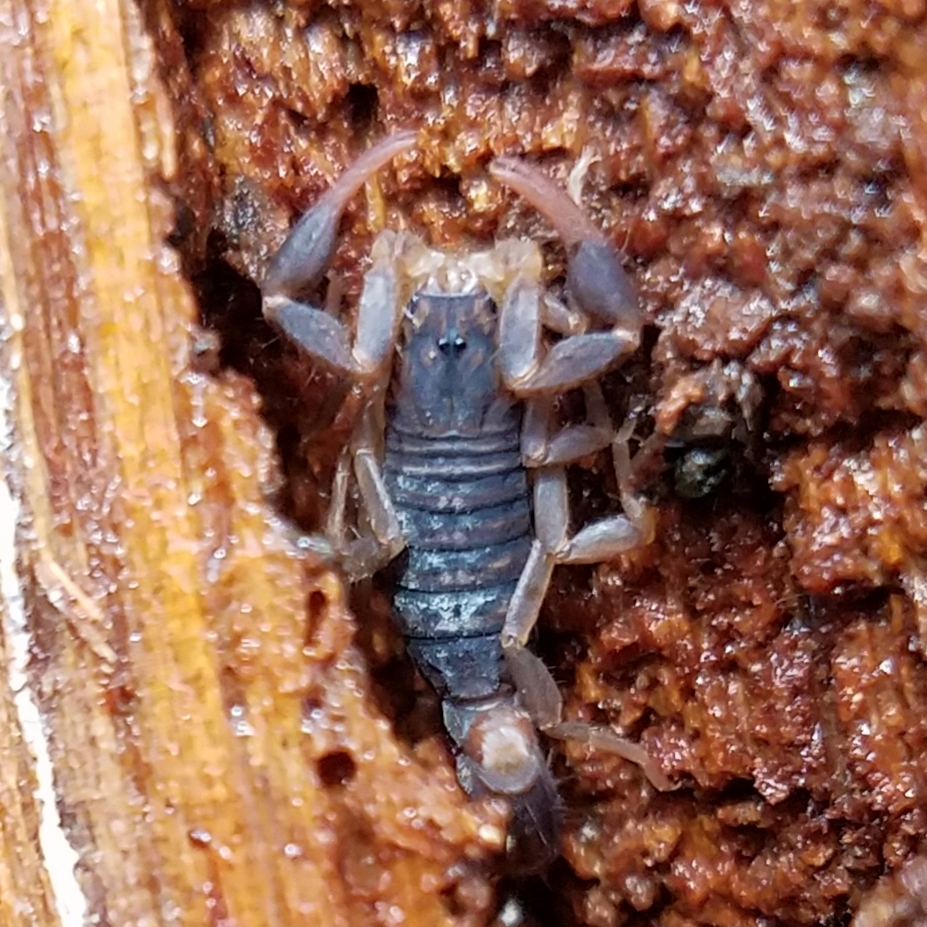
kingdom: Animalia
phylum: Arthropoda
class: Arachnida
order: Scorpiones
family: Vaejovidae
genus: Vaejovis
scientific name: Vaejovis carolinianus
